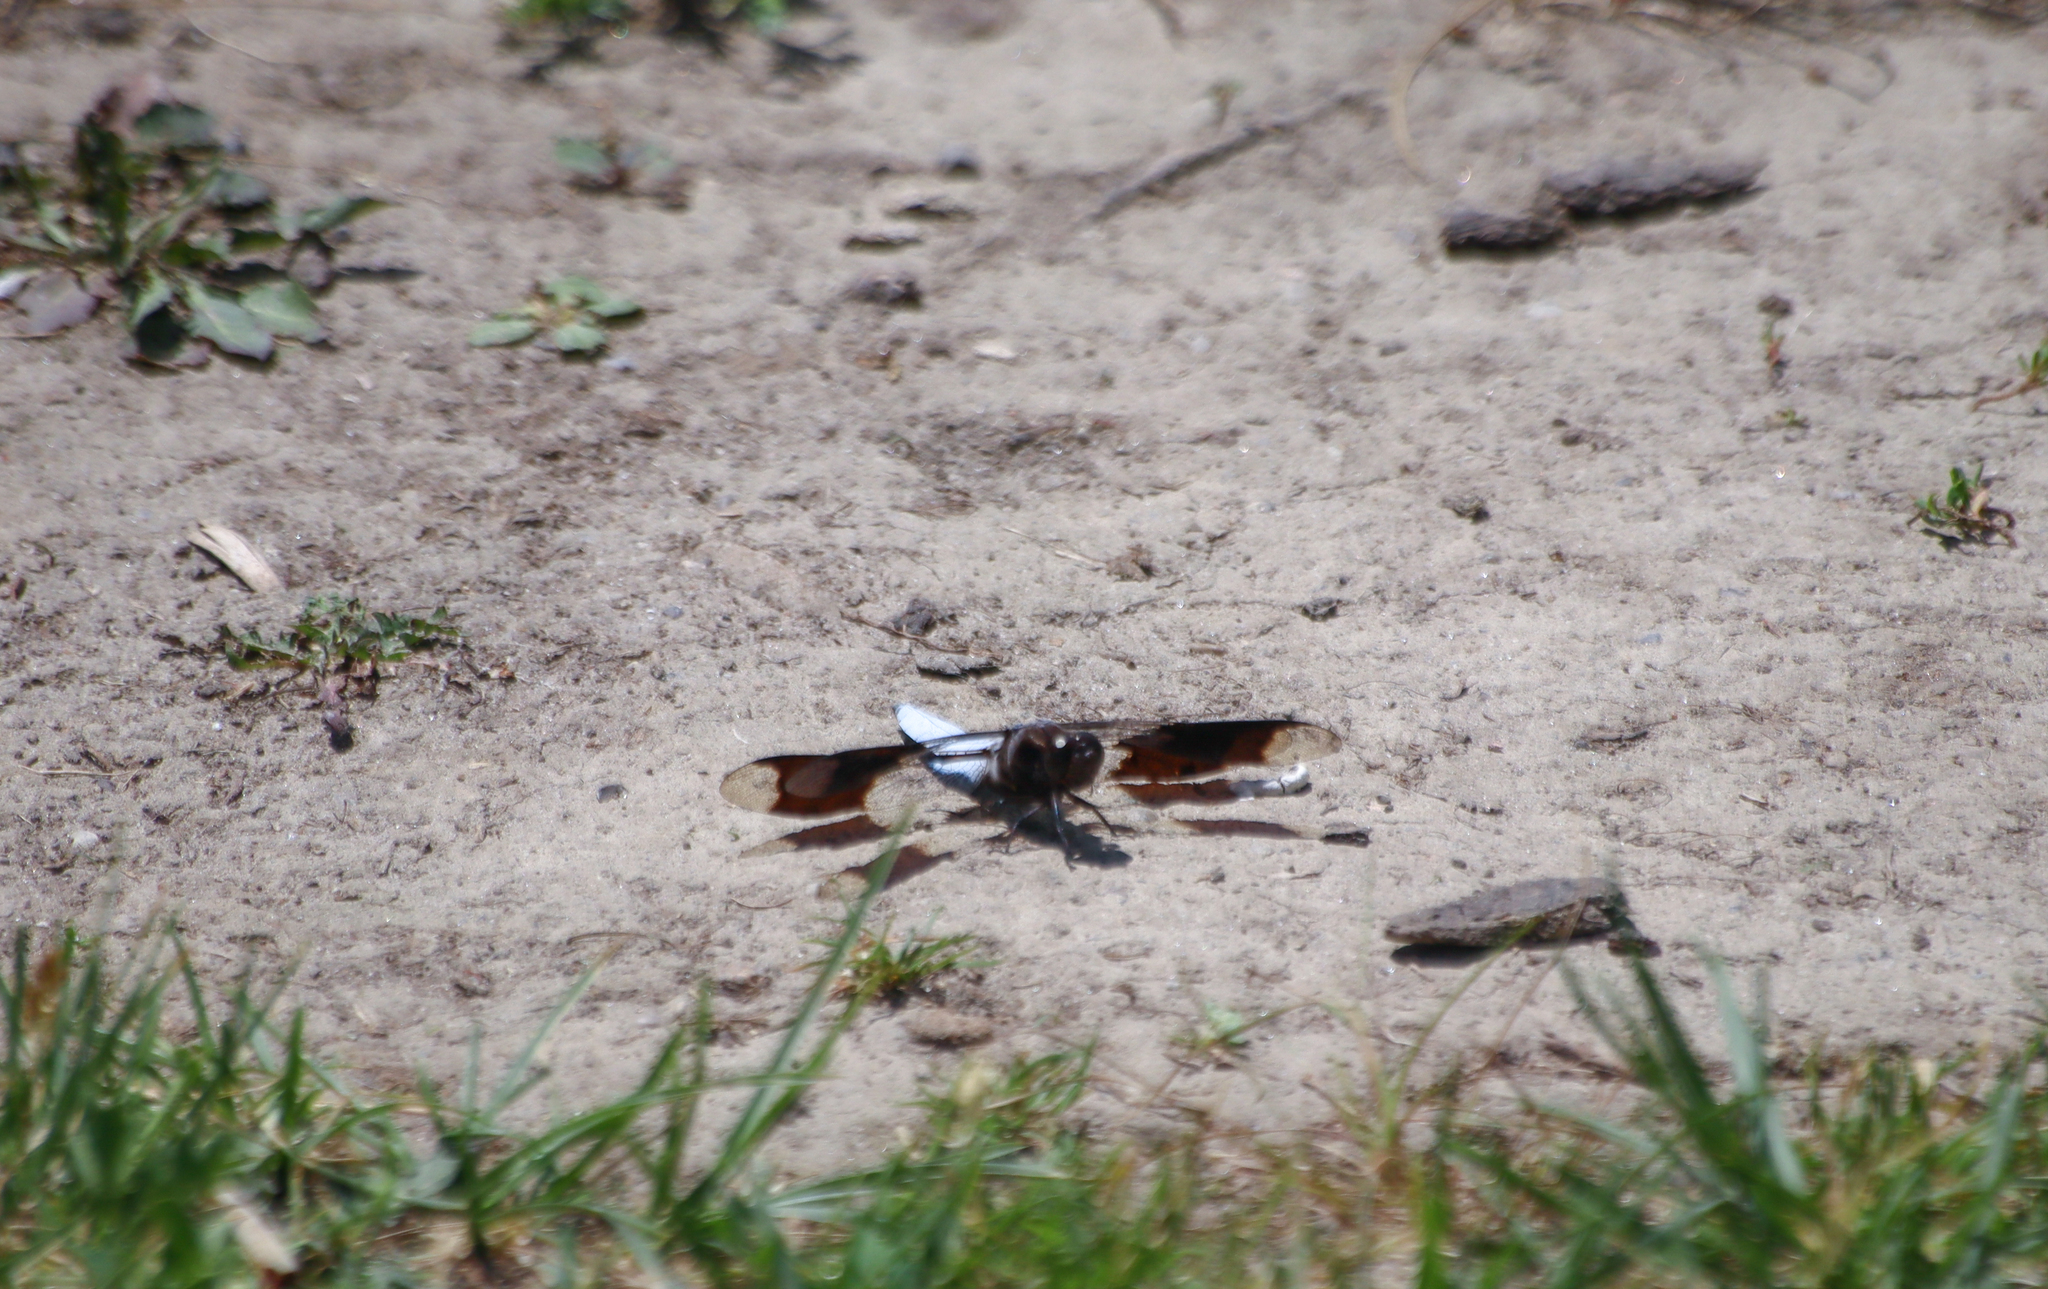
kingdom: Animalia
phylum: Arthropoda
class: Insecta
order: Odonata
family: Libellulidae
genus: Plathemis
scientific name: Plathemis lydia
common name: Common whitetail
